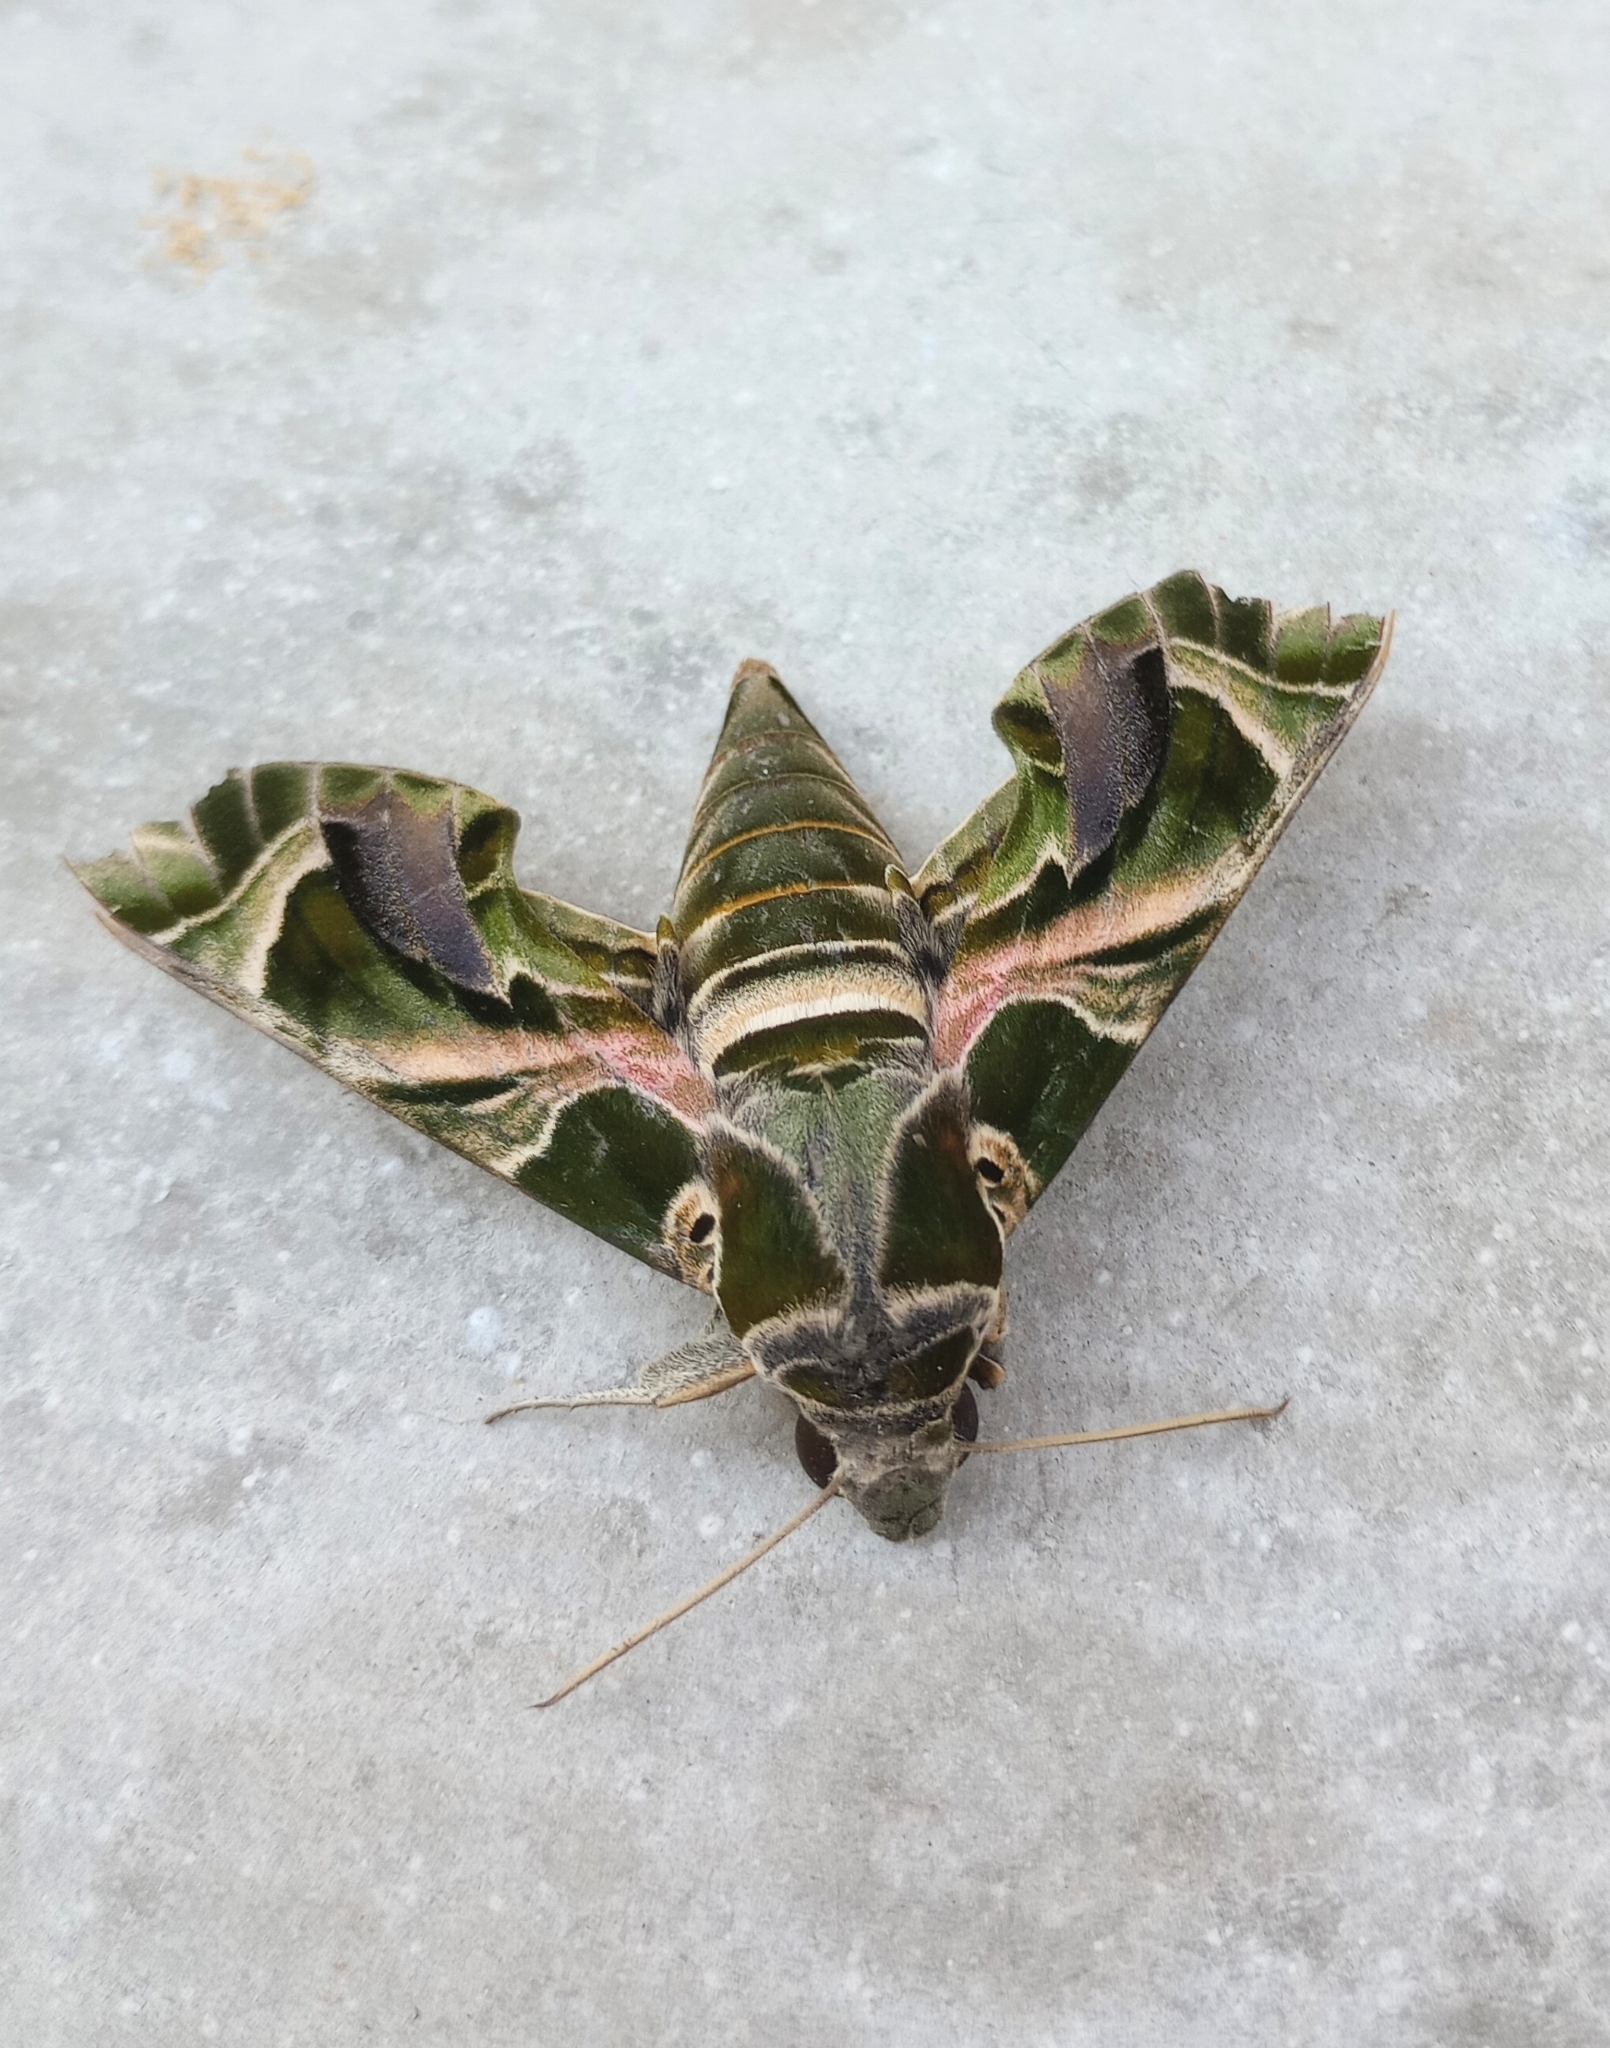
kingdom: Animalia
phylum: Arthropoda
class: Insecta
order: Lepidoptera
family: Sphingidae
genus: Daphnis
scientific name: Daphnis nerii
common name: Oleander hawk-moth
